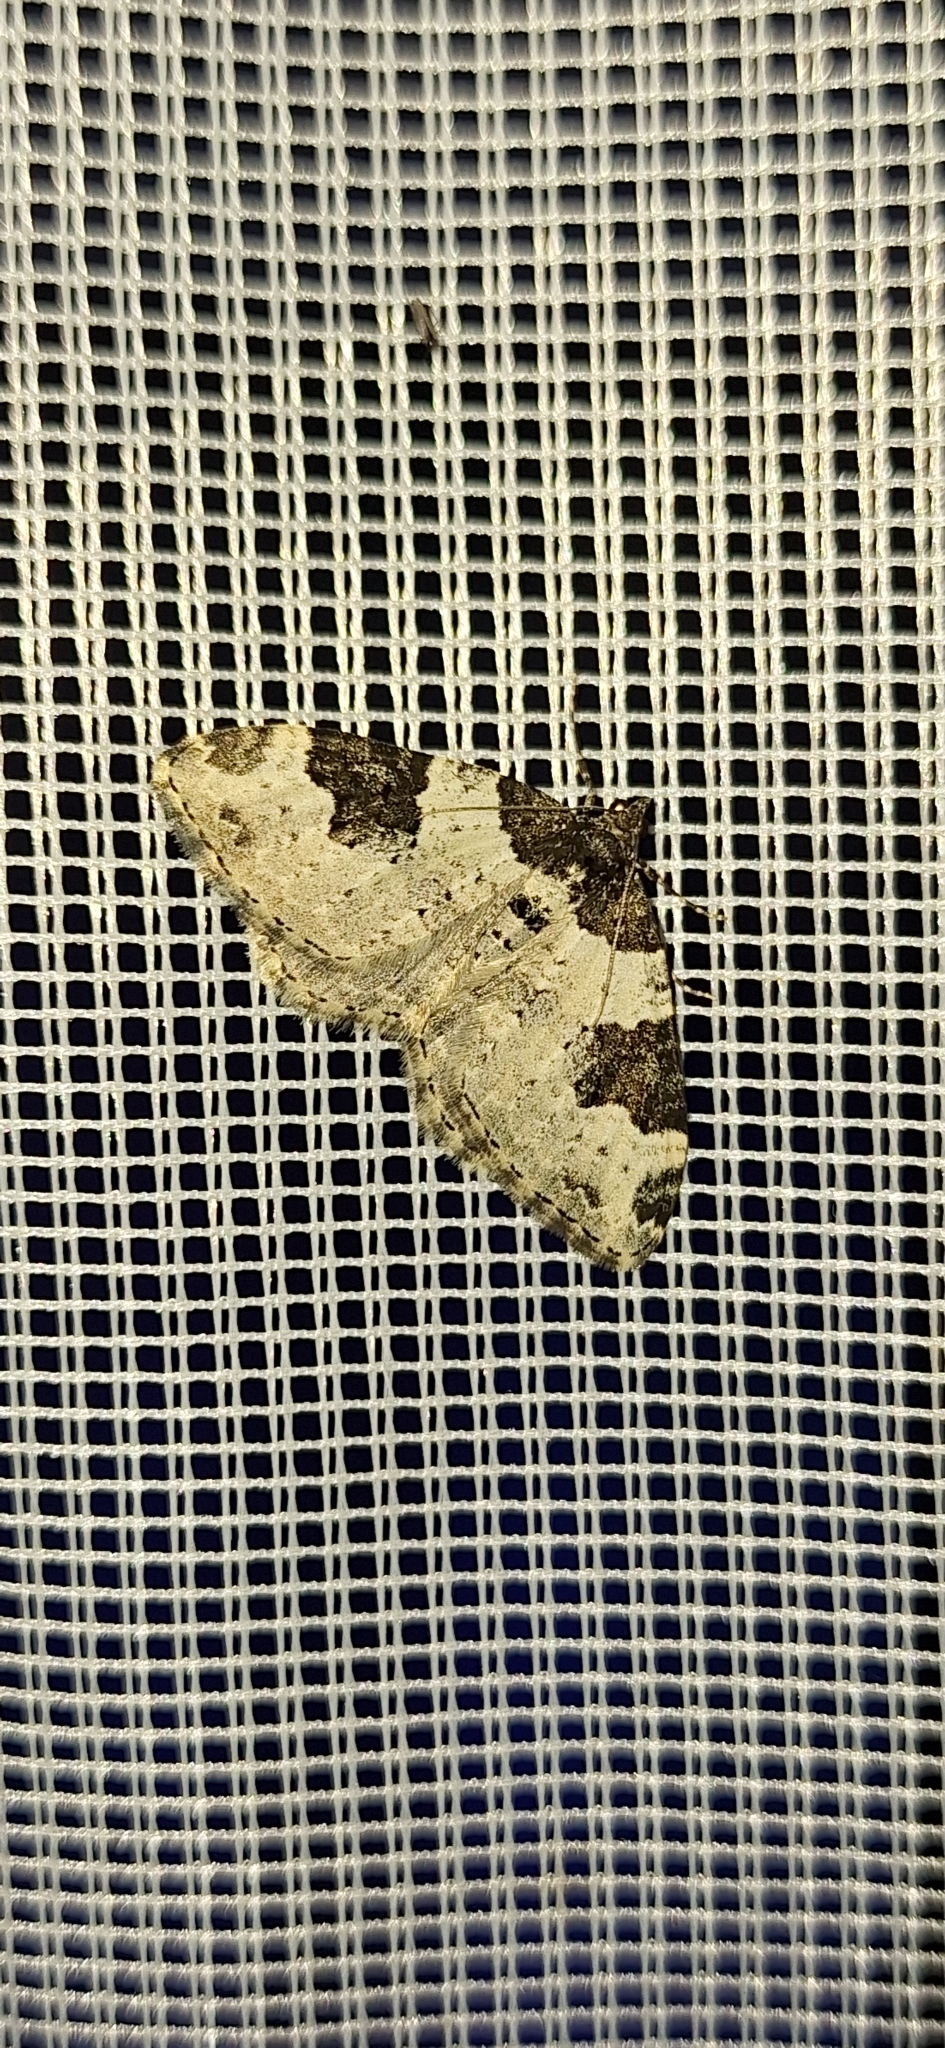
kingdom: Animalia
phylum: Arthropoda
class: Insecta
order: Lepidoptera
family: Geometridae
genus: Xanthorhoe
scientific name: Xanthorhoe fluctuata
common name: Garden carpet
